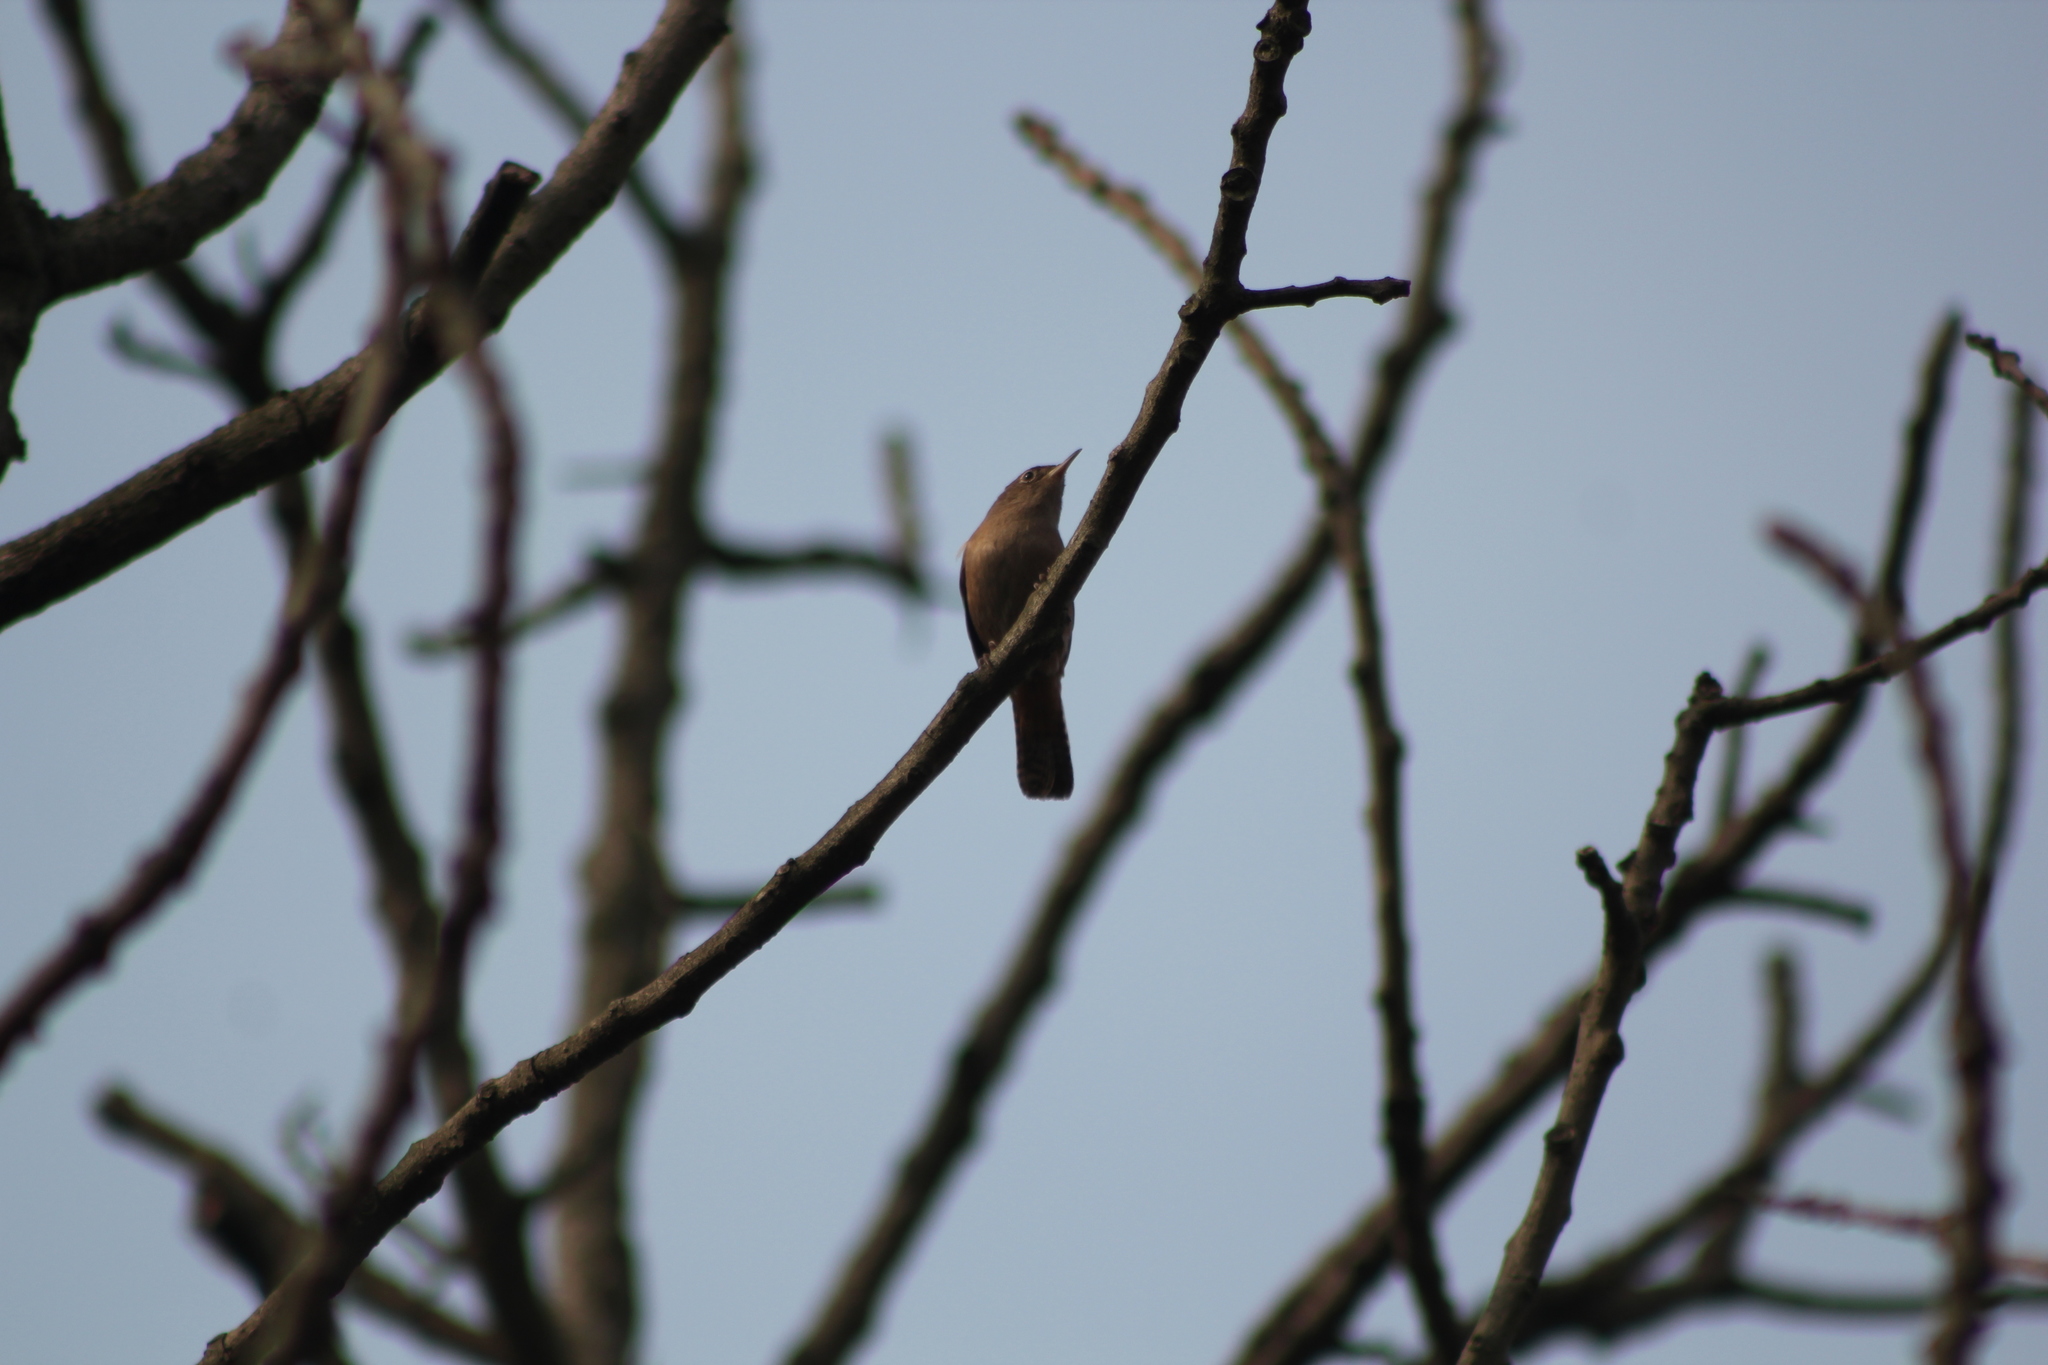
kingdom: Animalia
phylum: Chordata
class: Aves
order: Passeriformes
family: Troglodytidae
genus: Troglodytes
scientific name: Troglodytes aedon
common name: House wren
